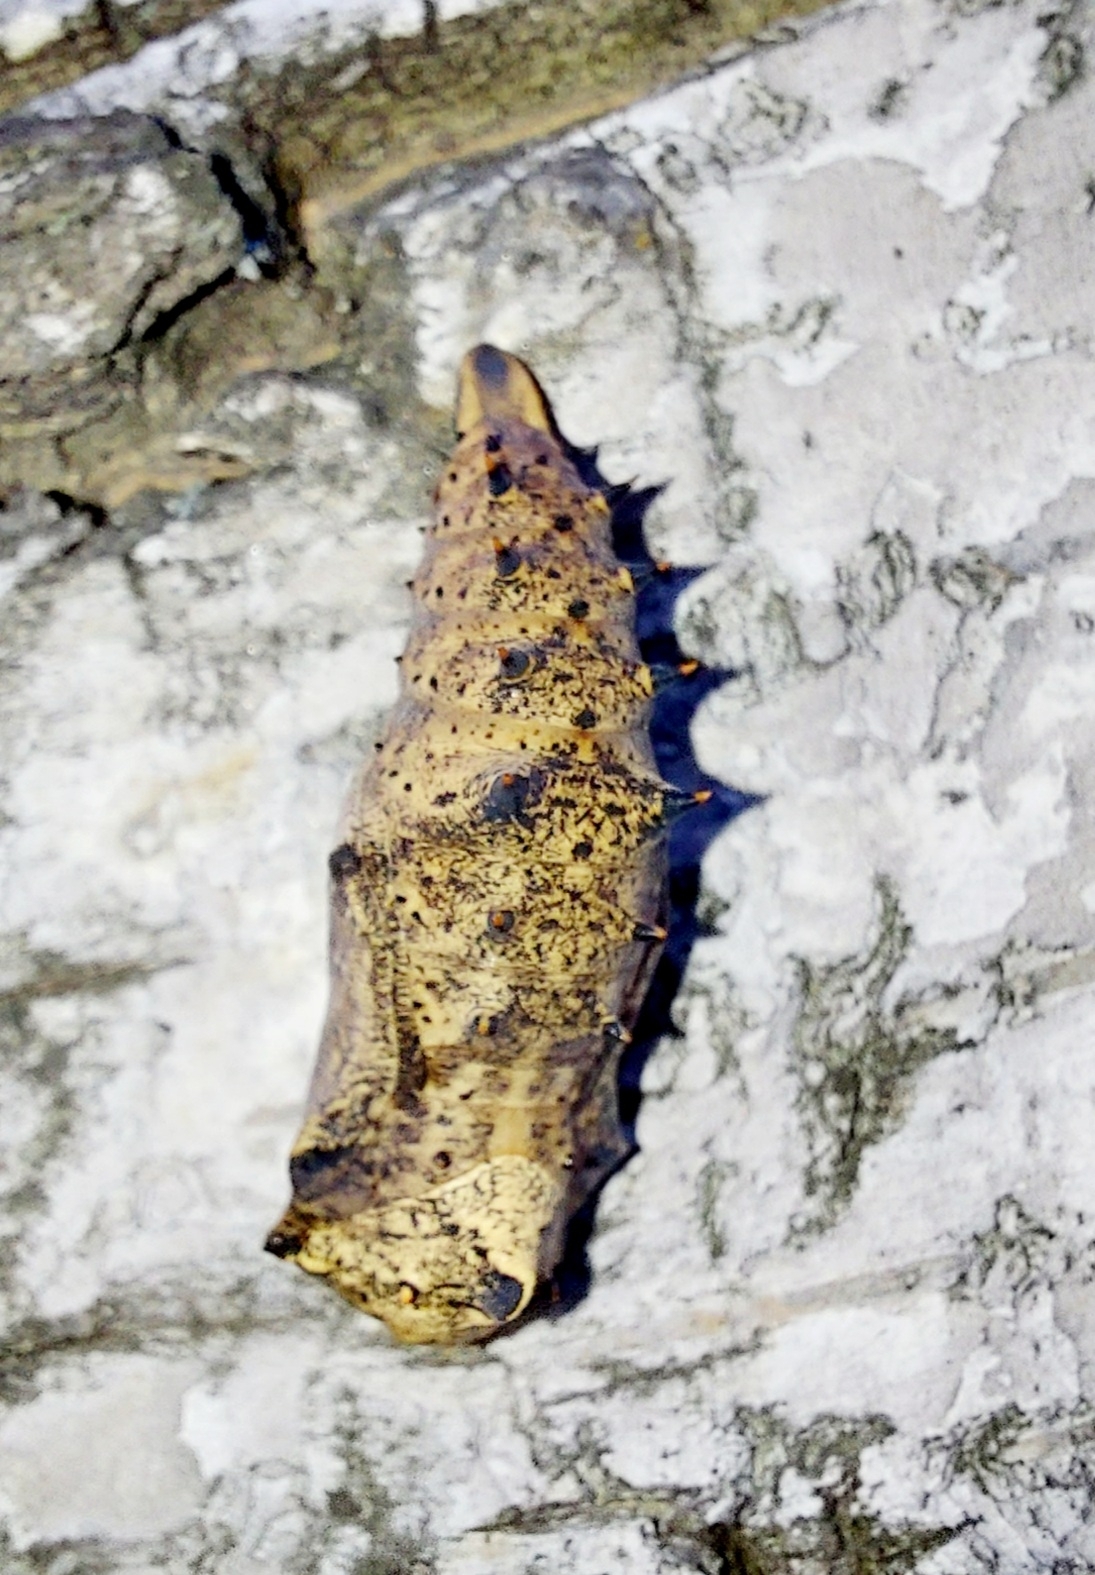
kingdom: Animalia
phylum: Arthropoda
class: Insecta
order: Lepidoptera
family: Nymphalidae
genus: Nymphalis
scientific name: Nymphalis antiopa
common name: Camberwell beauty
